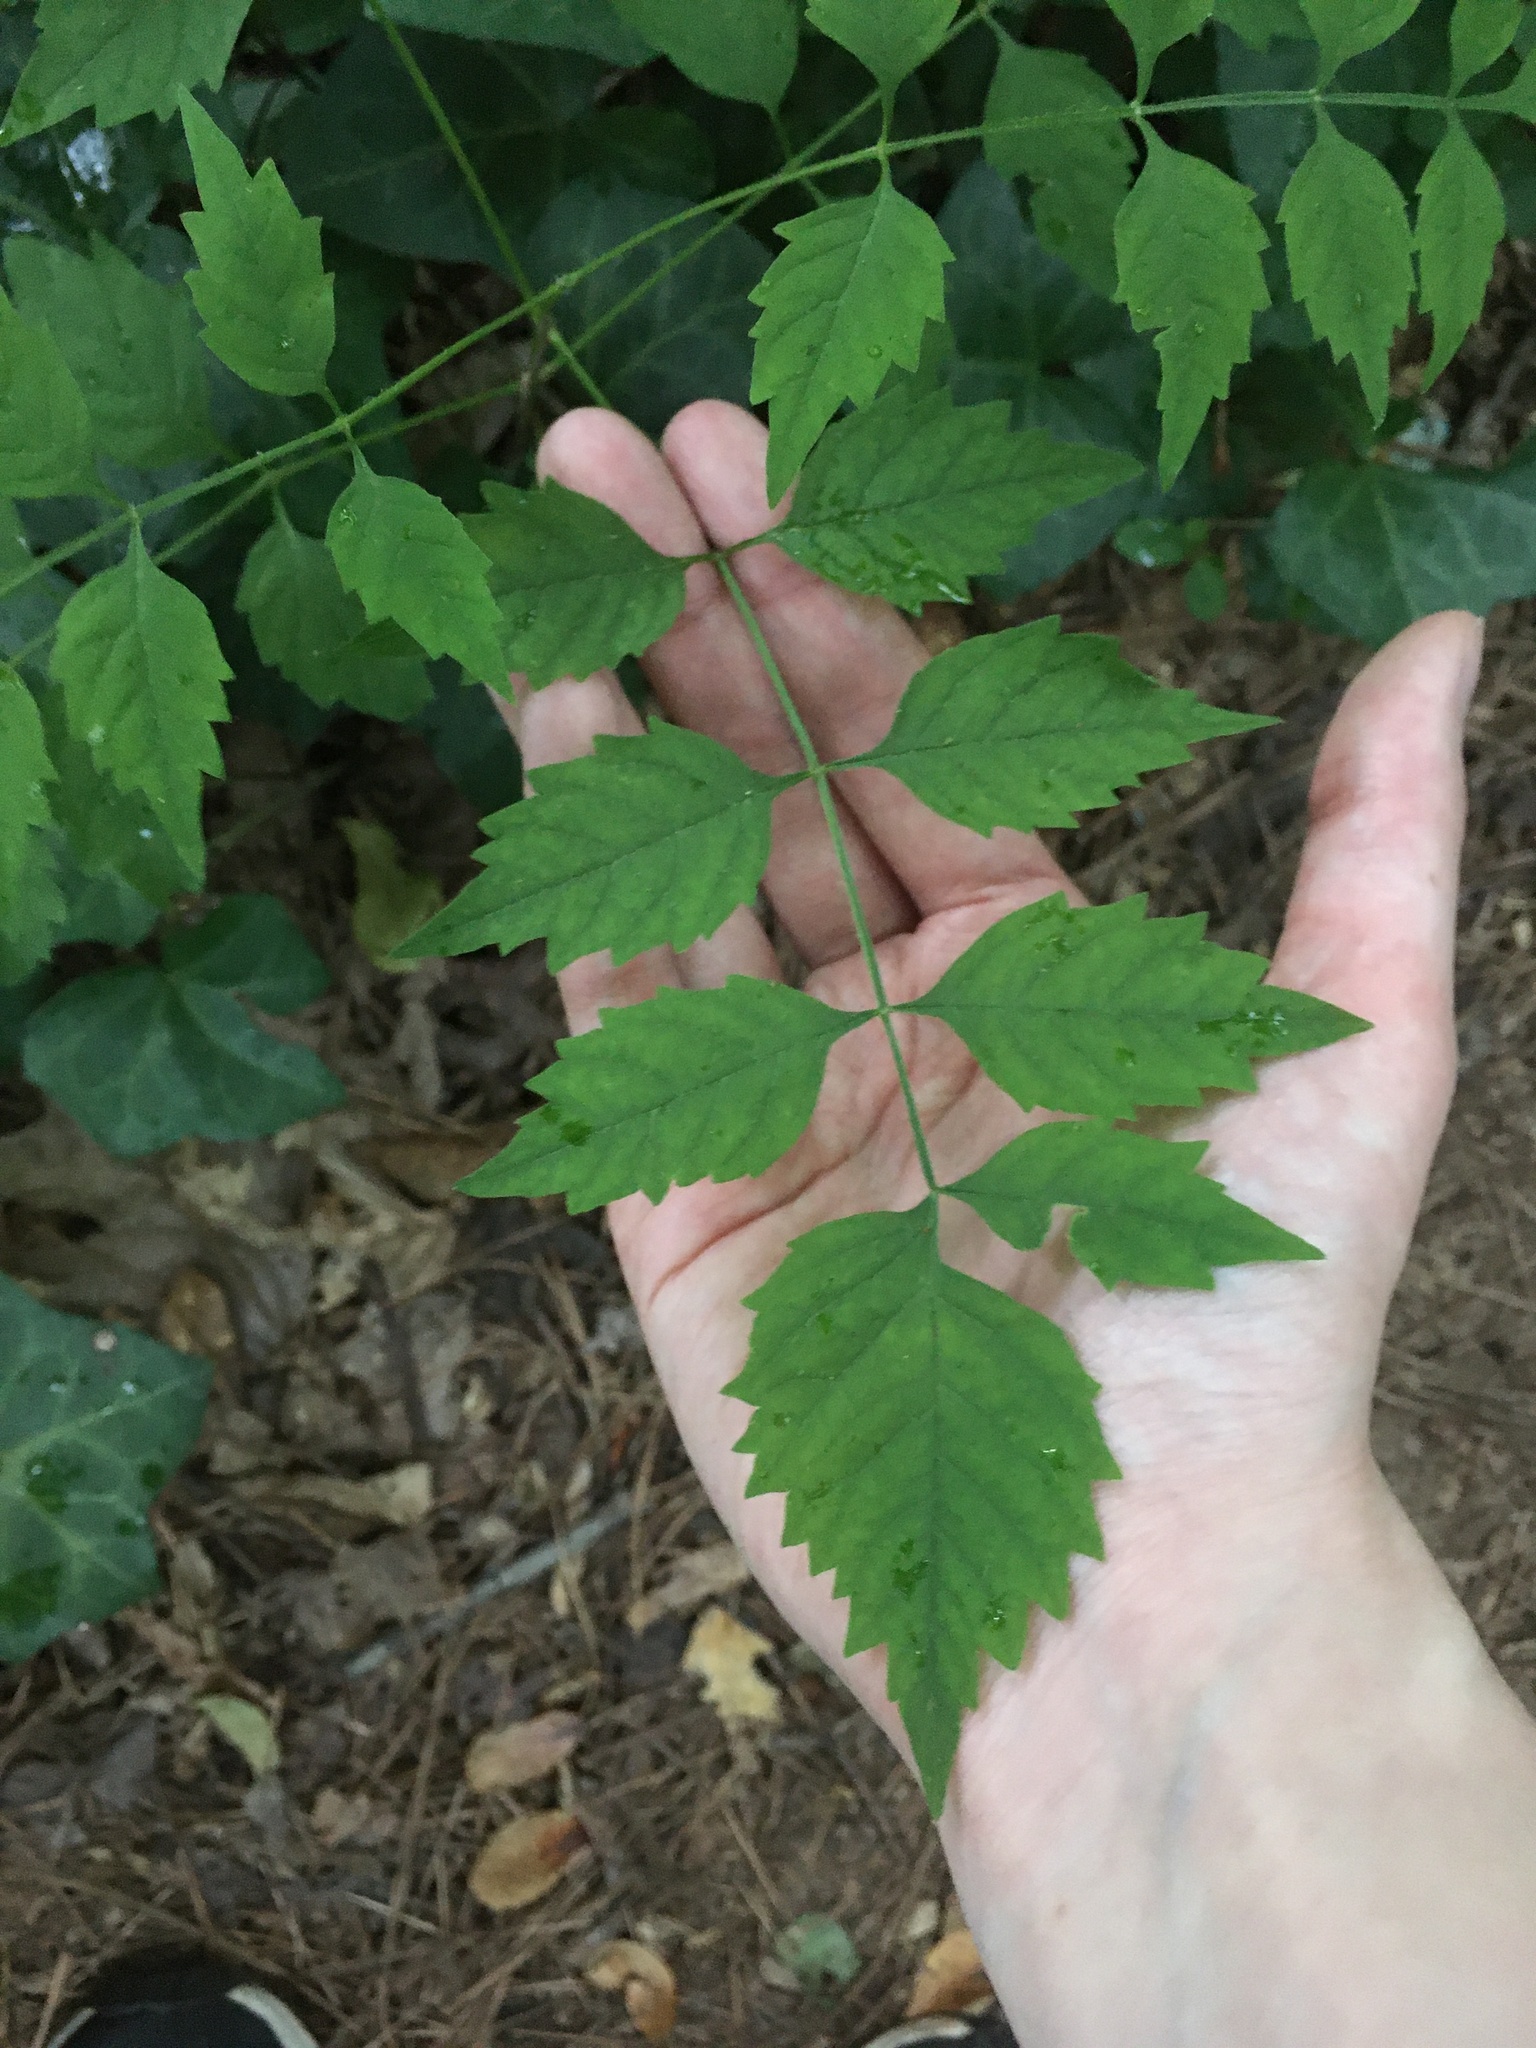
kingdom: Plantae
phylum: Tracheophyta
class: Magnoliopsida
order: Lamiales
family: Bignoniaceae
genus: Campsis
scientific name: Campsis radicans
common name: Trumpet-creeper
